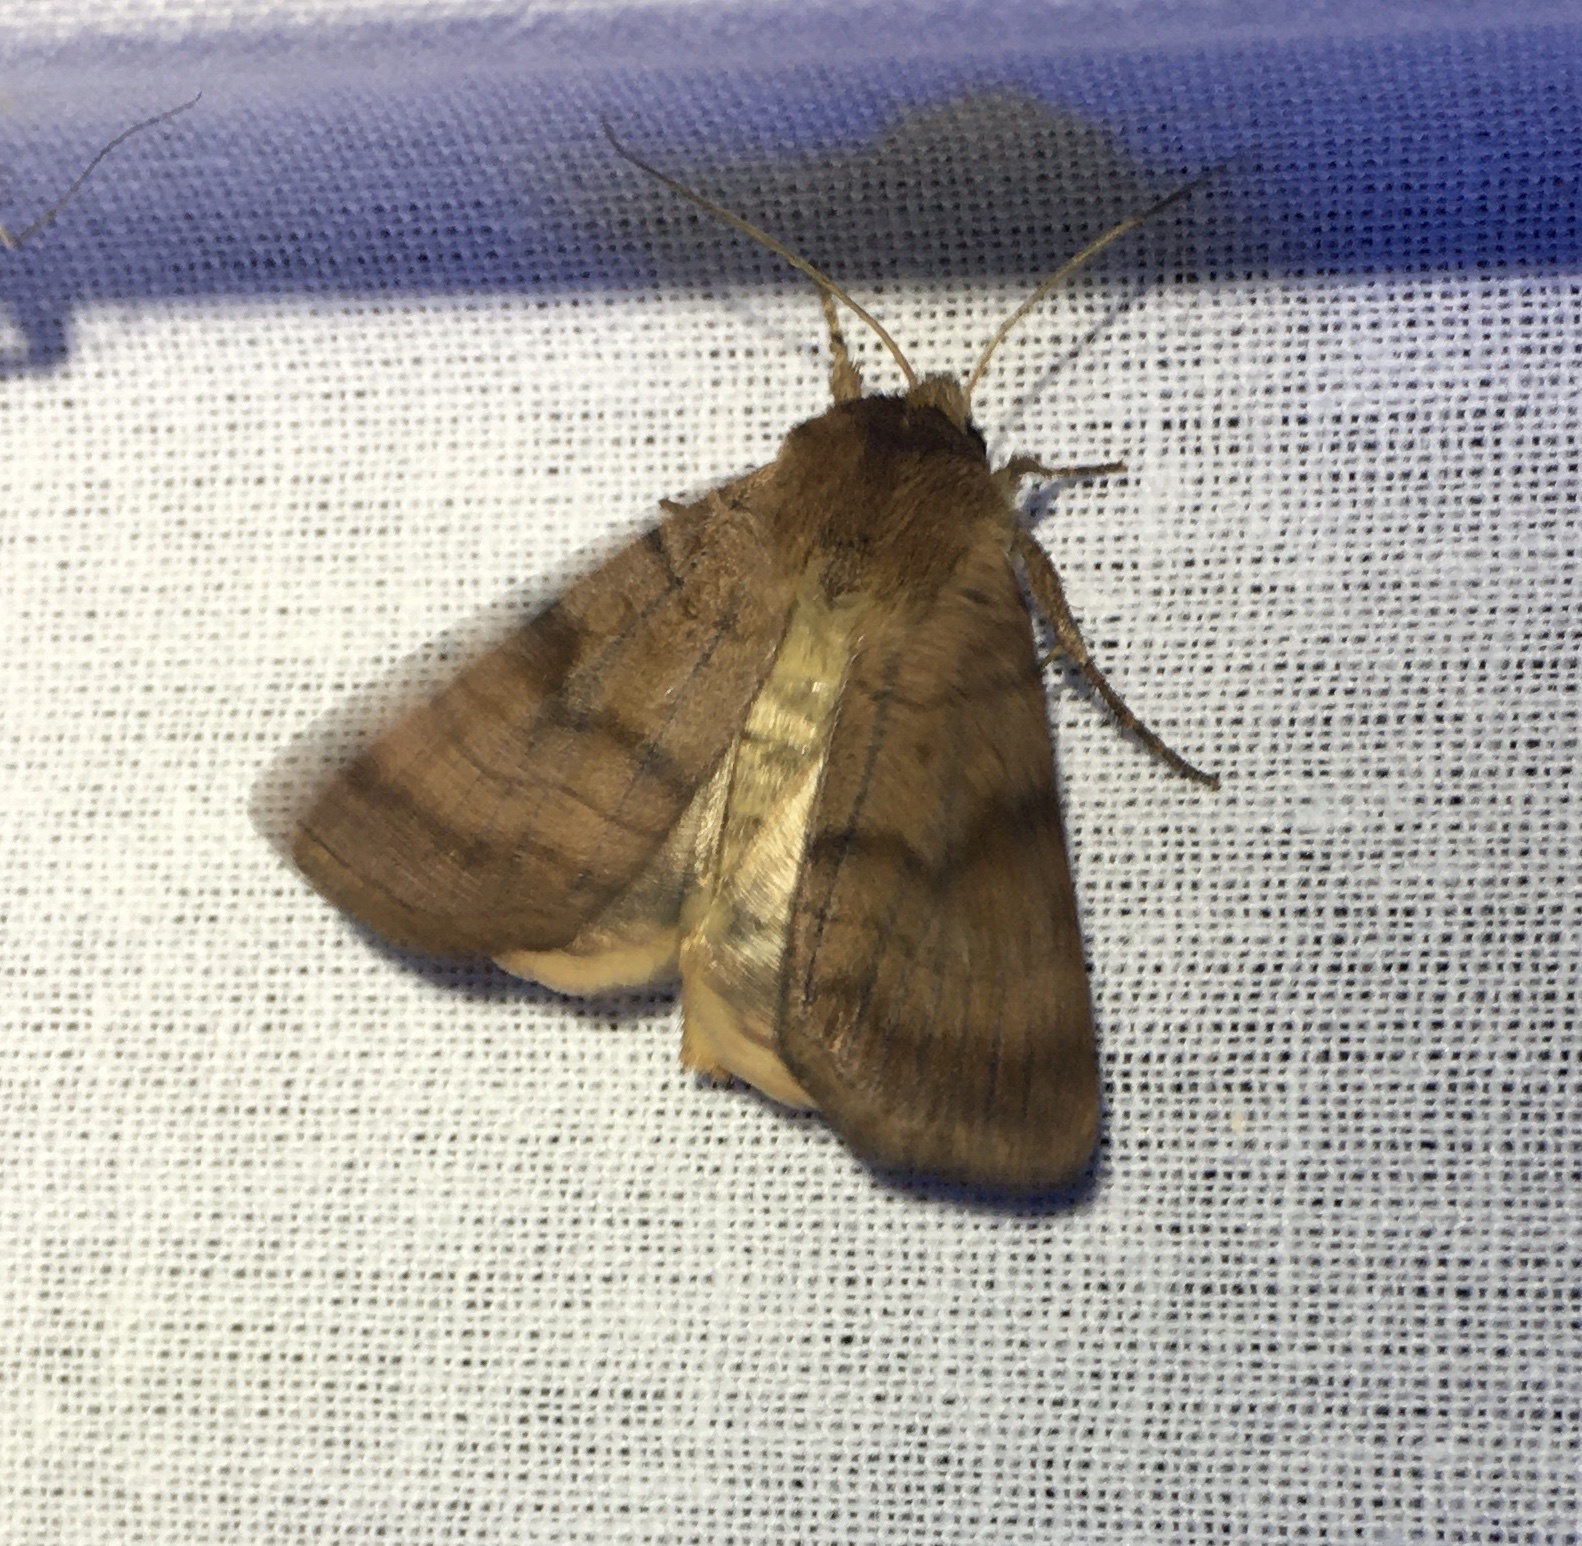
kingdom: Animalia
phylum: Arthropoda
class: Insecta
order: Lepidoptera
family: Noctuidae
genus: Xestia
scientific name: Xestia sexstrigata
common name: Six-striped rustic
